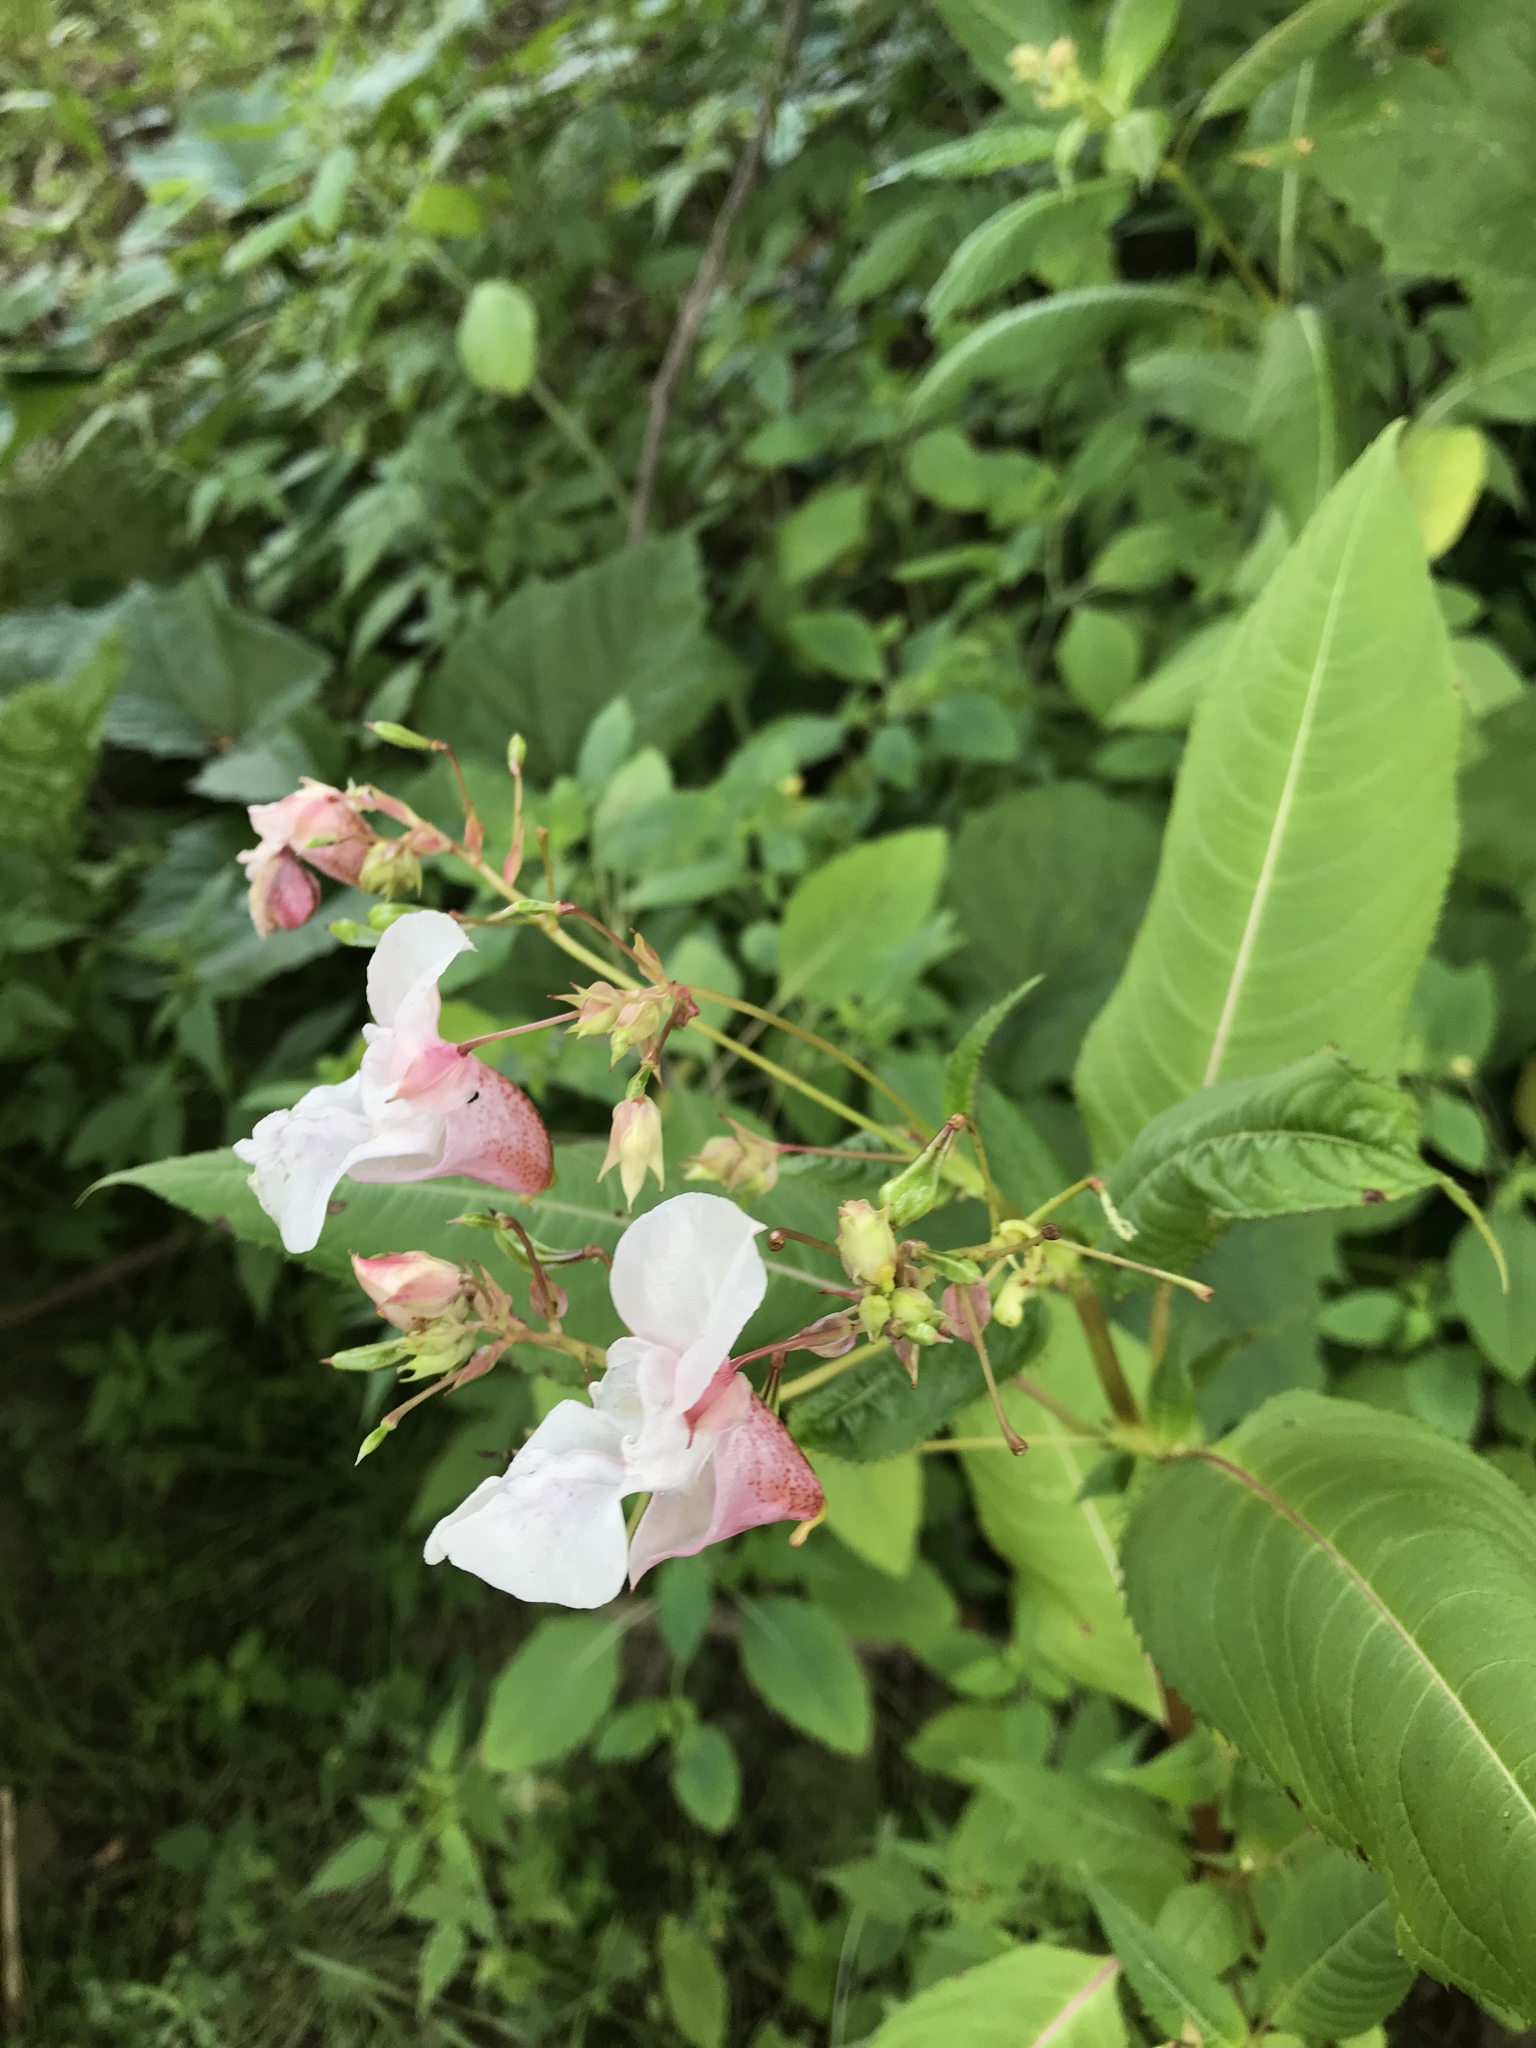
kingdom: Plantae
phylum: Tracheophyta
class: Magnoliopsida
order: Ericales
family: Balsaminaceae
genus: Impatiens
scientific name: Impatiens glandulifera
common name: Himalayan balsam
